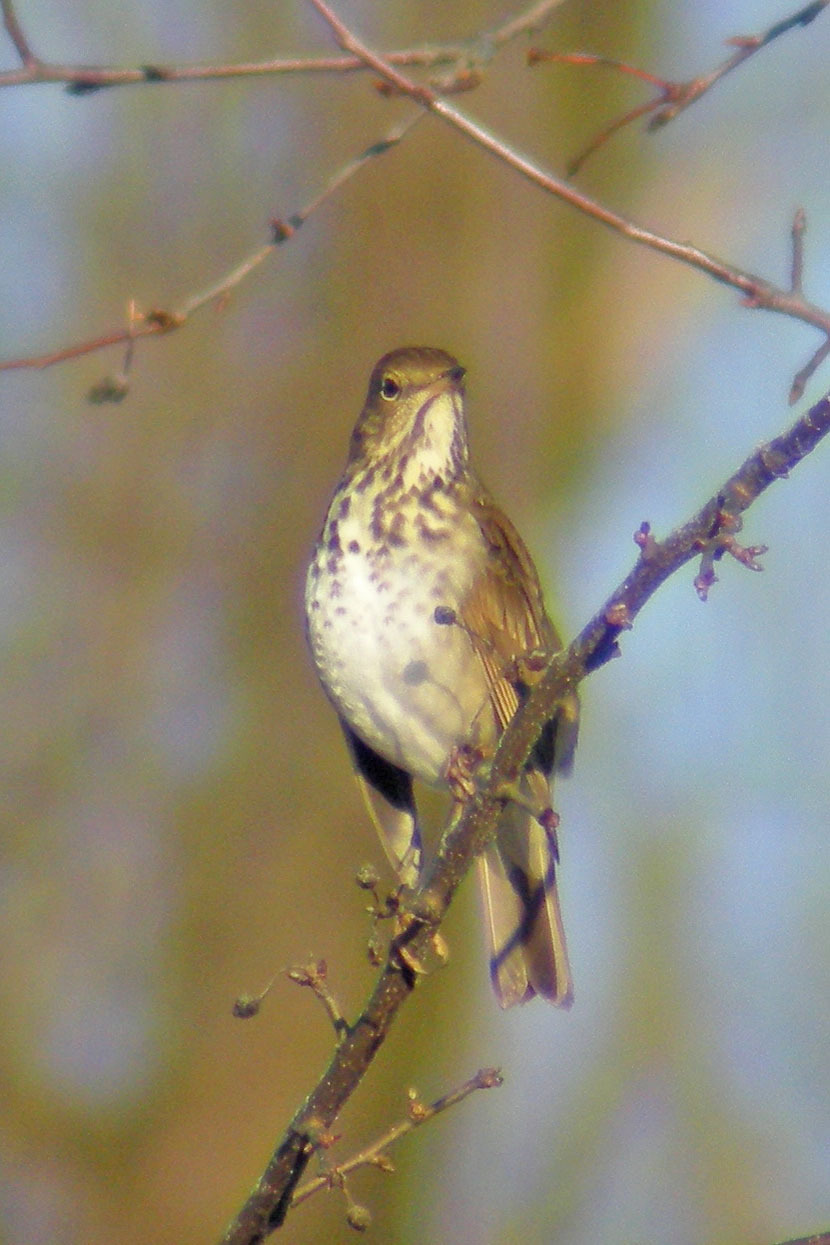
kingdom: Animalia
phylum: Chordata
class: Aves
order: Passeriformes
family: Turdidae
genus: Catharus
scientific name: Catharus guttatus
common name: Hermit thrush
